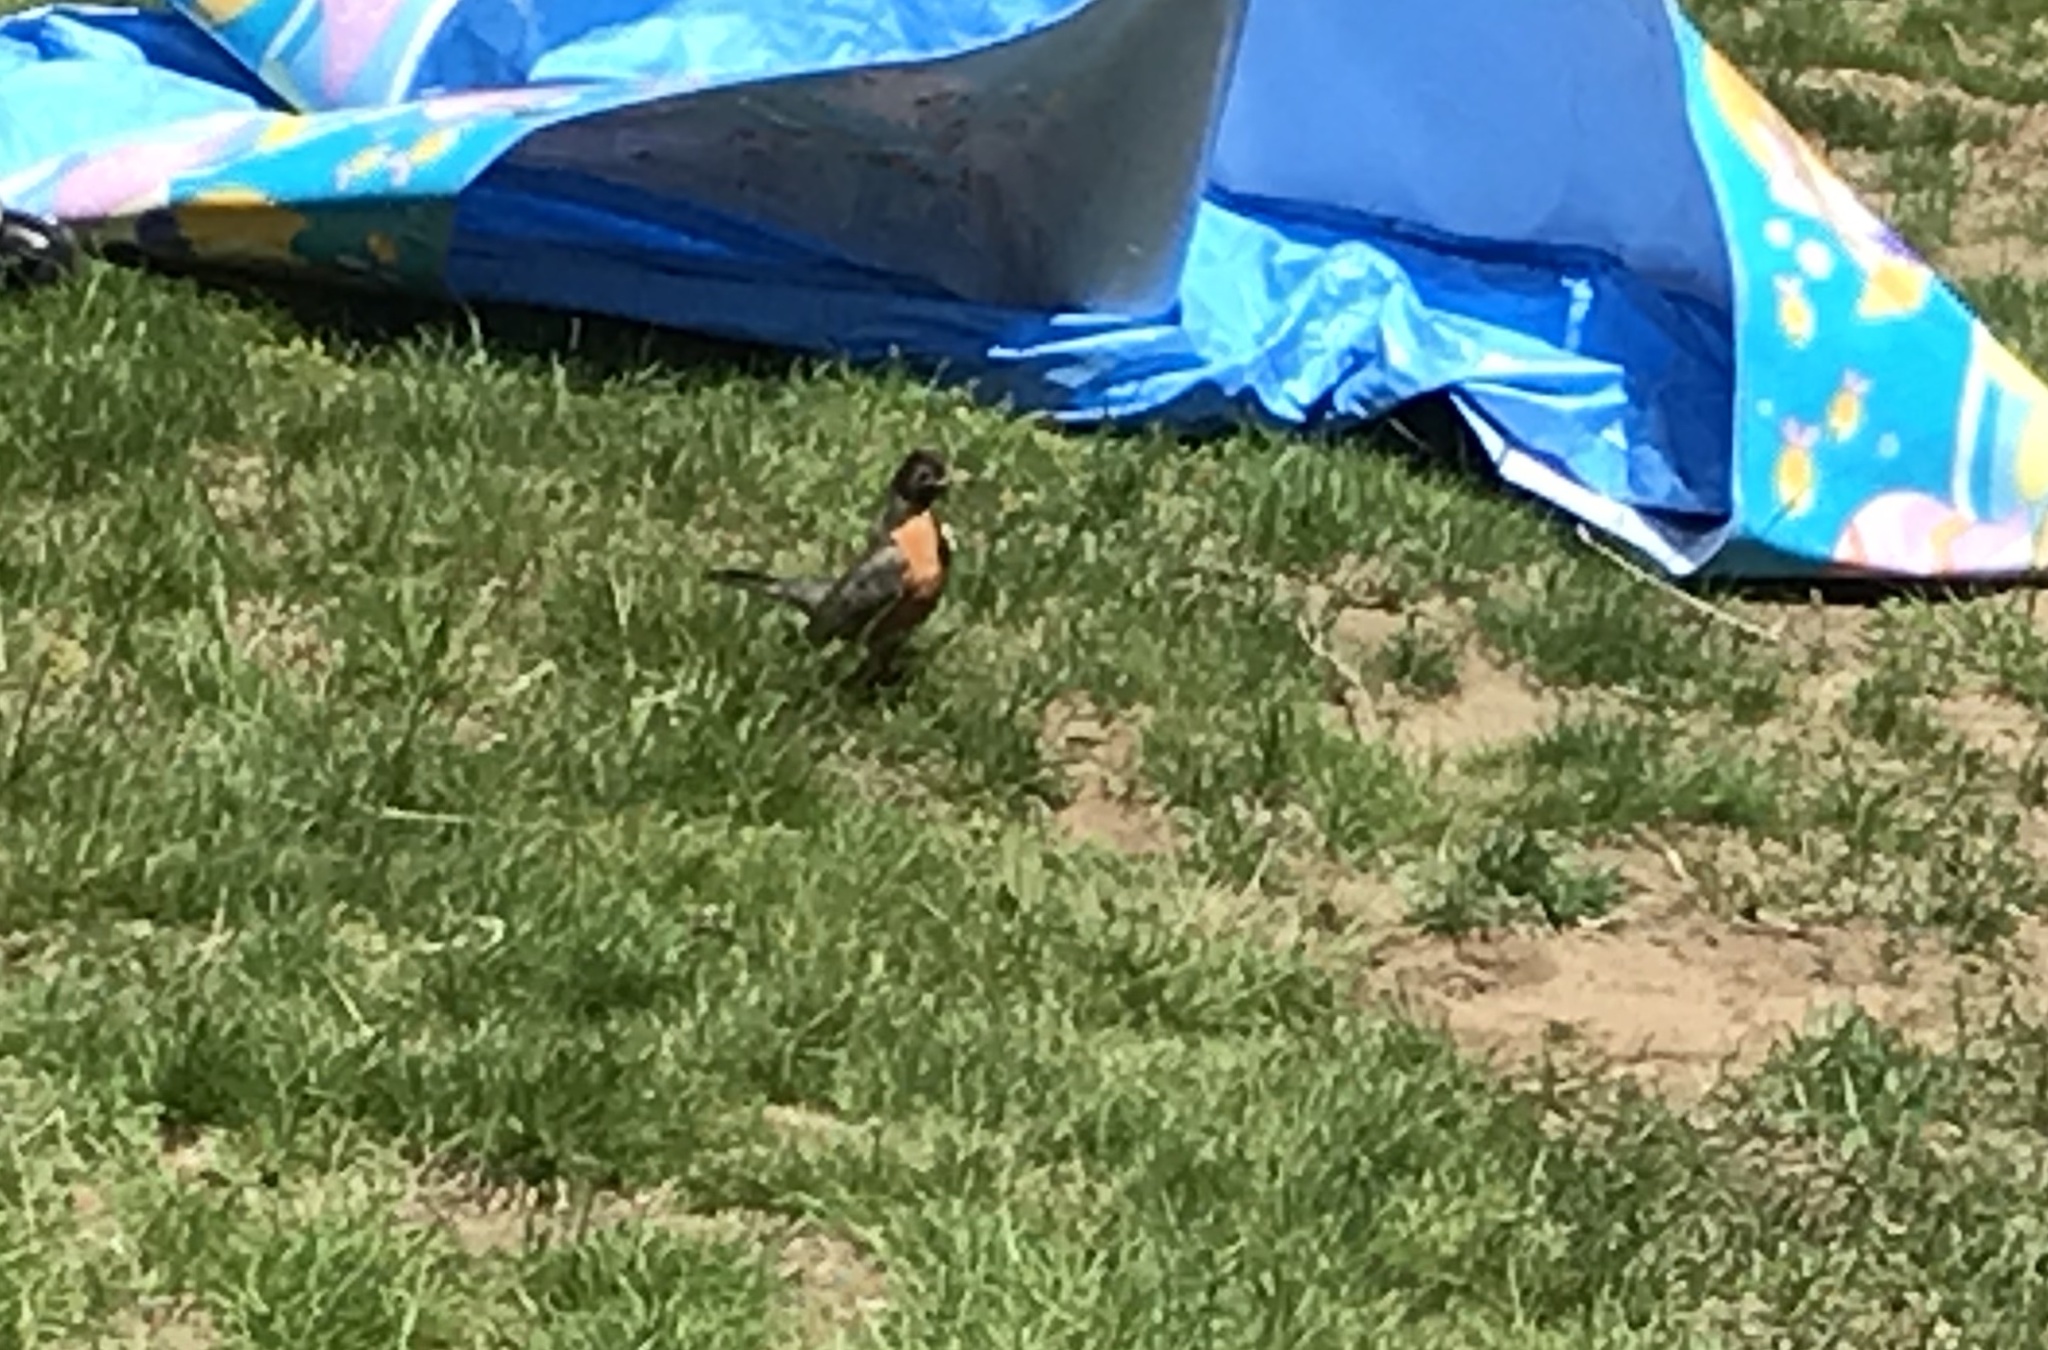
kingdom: Animalia
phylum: Chordata
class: Aves
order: Passeriformes
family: Turdidae
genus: Turdus
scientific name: Turdus migratorius
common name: American robin
